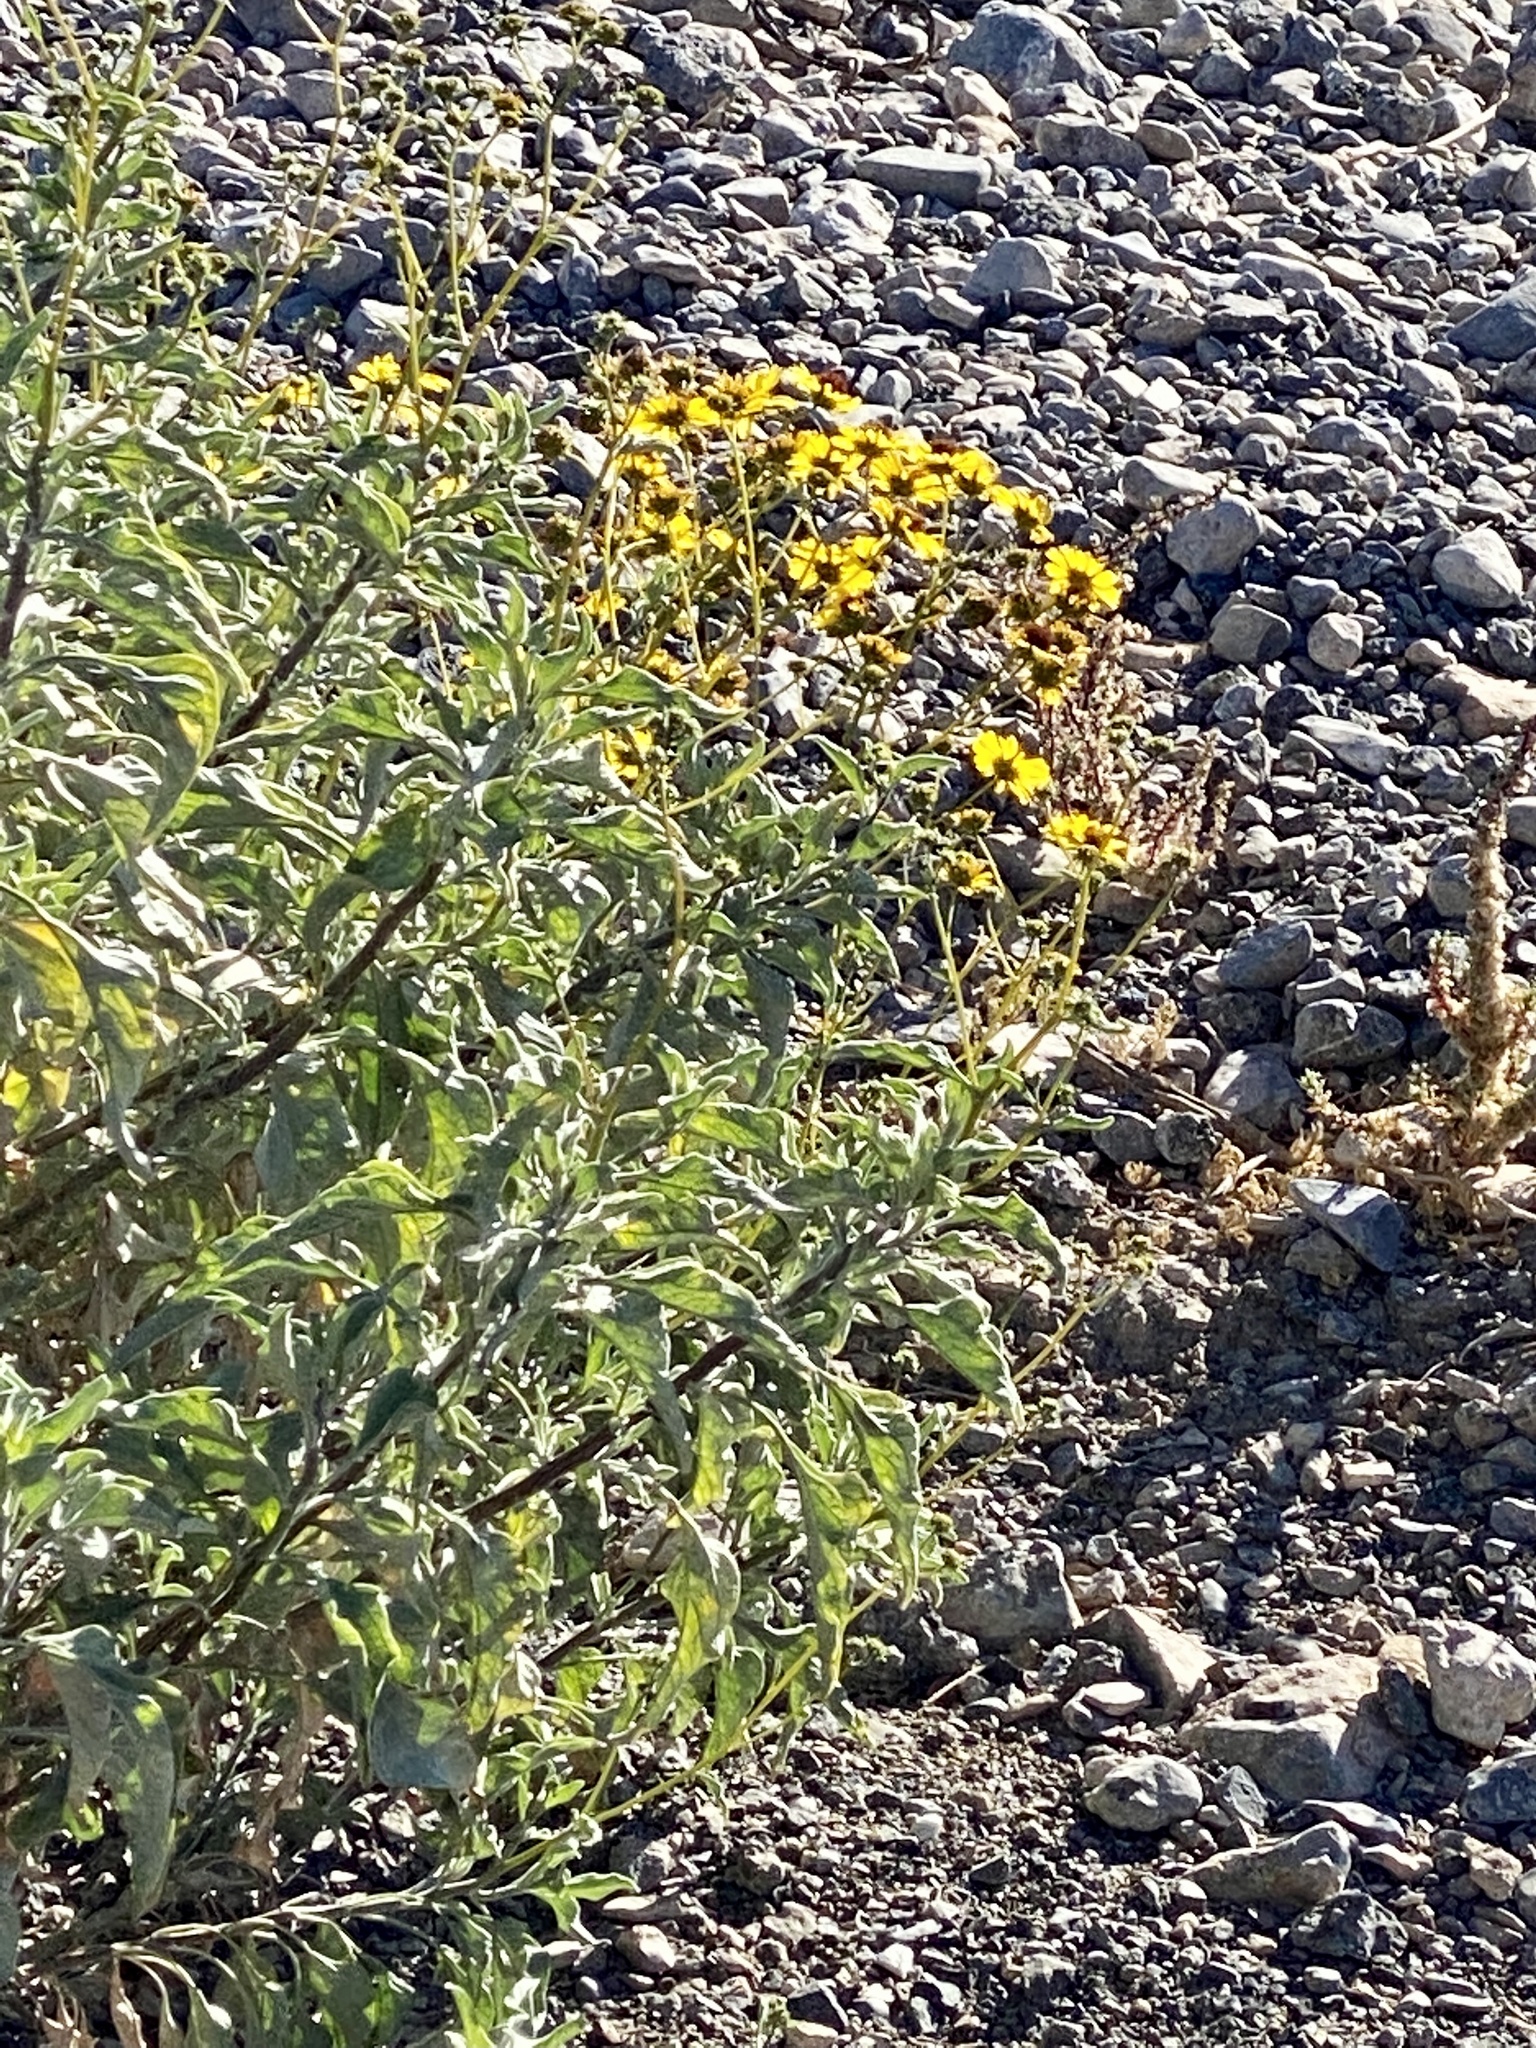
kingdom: Plantae
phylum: Tracheophyta
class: Magnoliopsida
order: Asterales
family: Asteraceae
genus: Encelia
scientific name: Encelia farinosa
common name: Brittlebush
